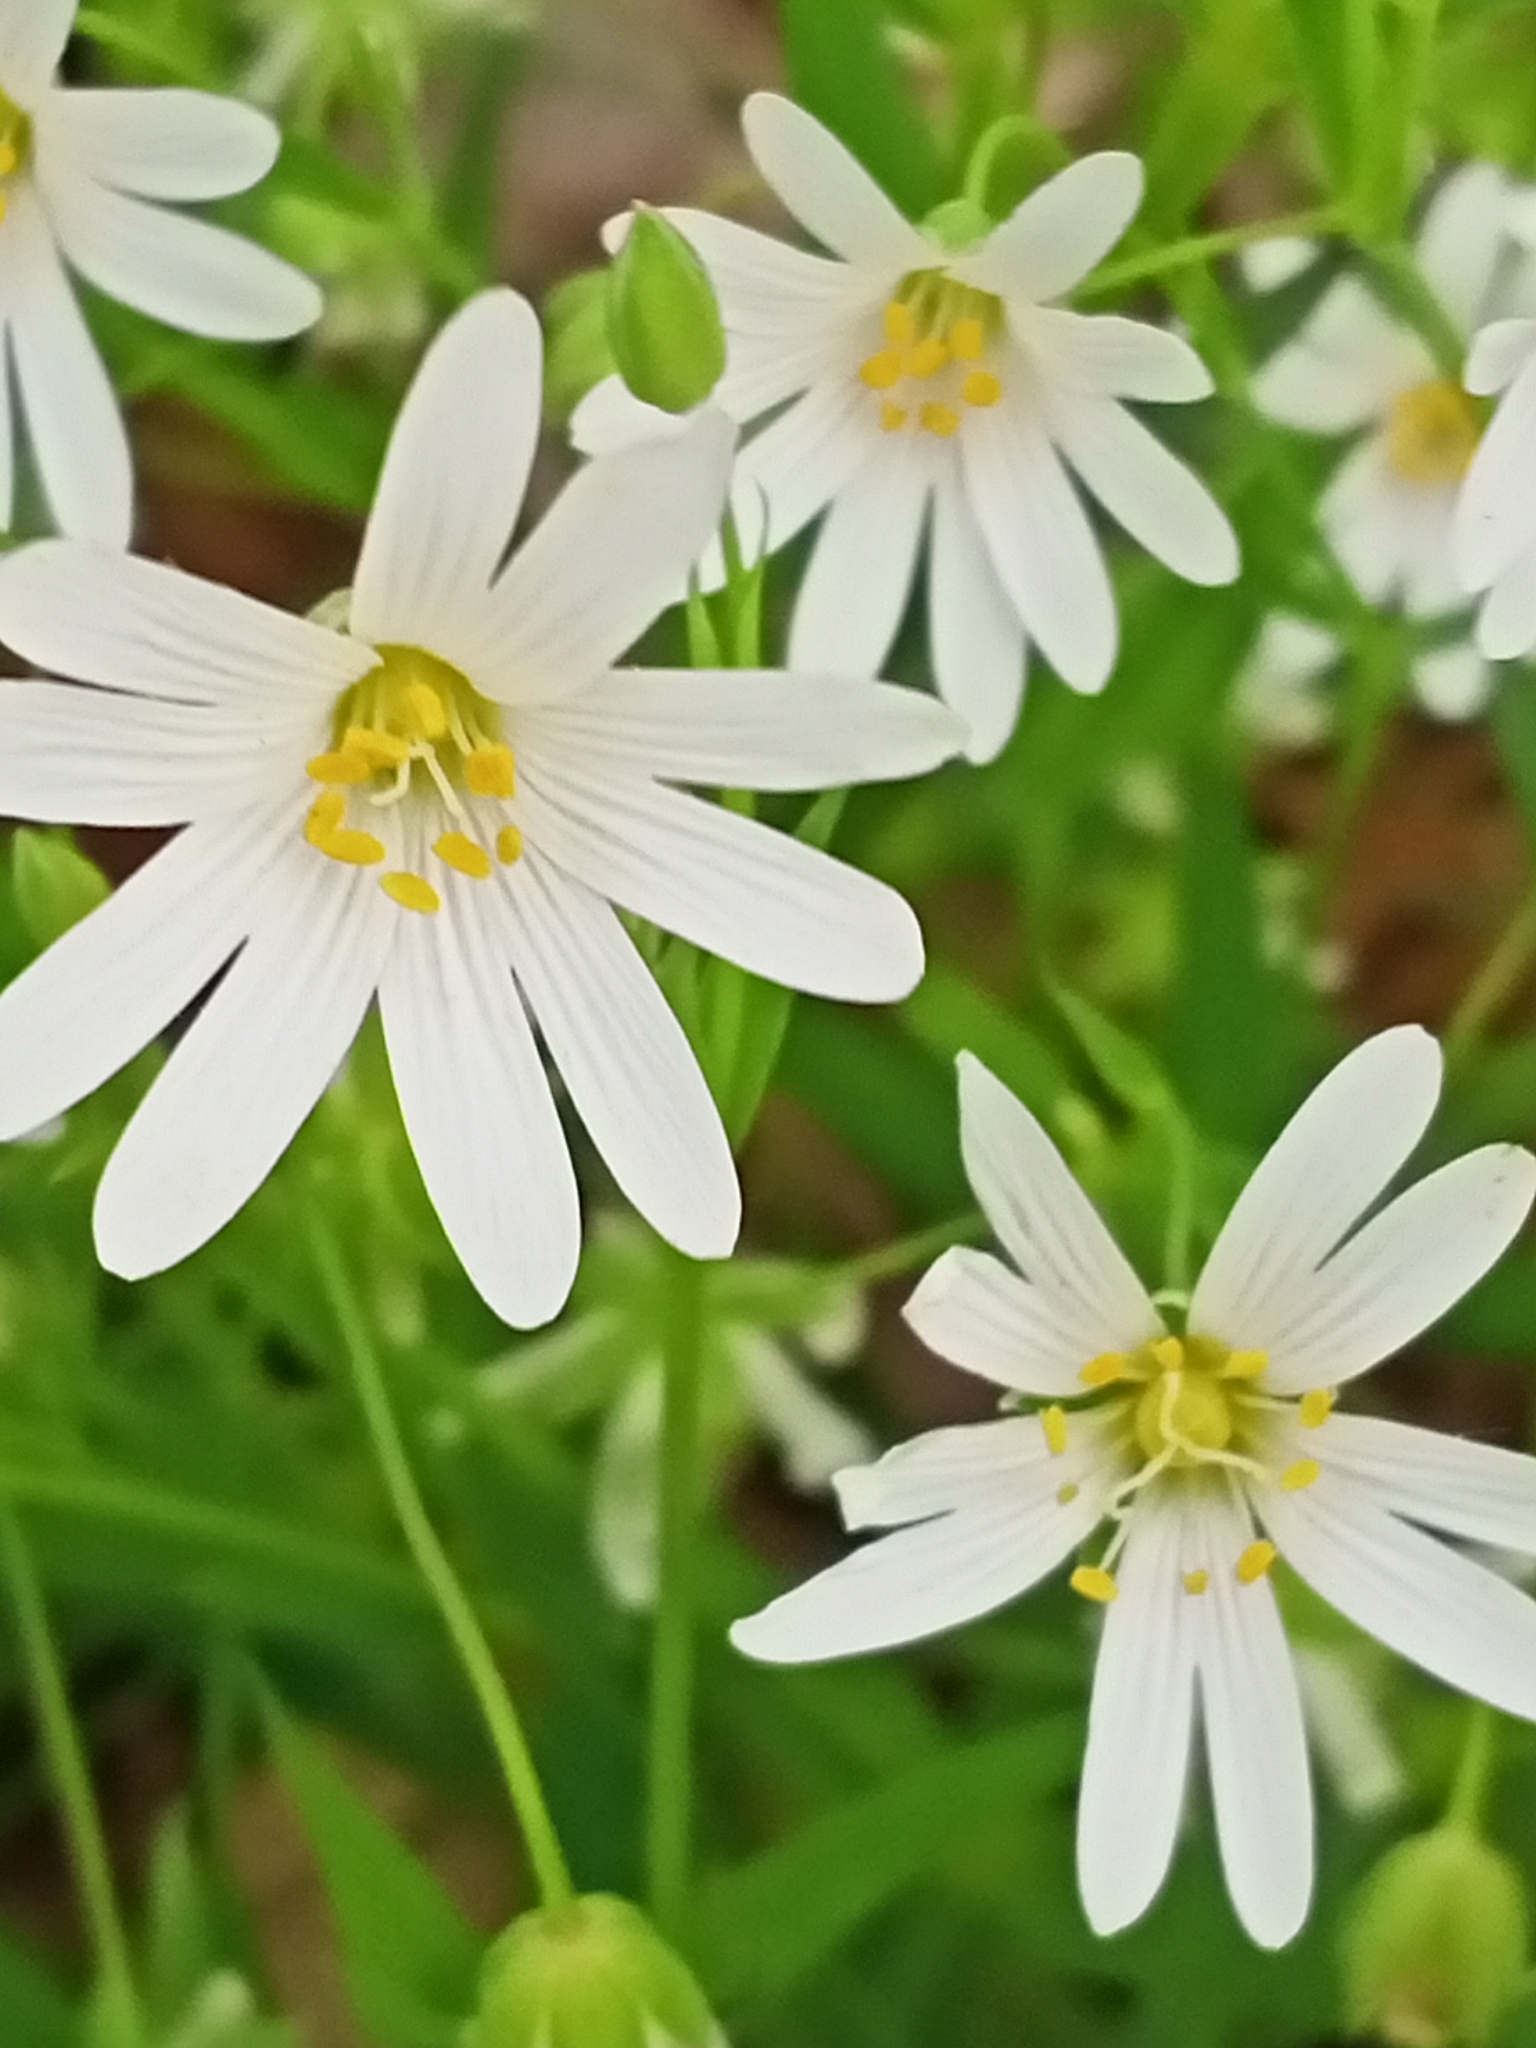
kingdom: Plantae
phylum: Tracheophyta
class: Magnoliopsida
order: Caryophyllales
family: Caryophyllaceae
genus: Rabelera
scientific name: Rabelera holostea
